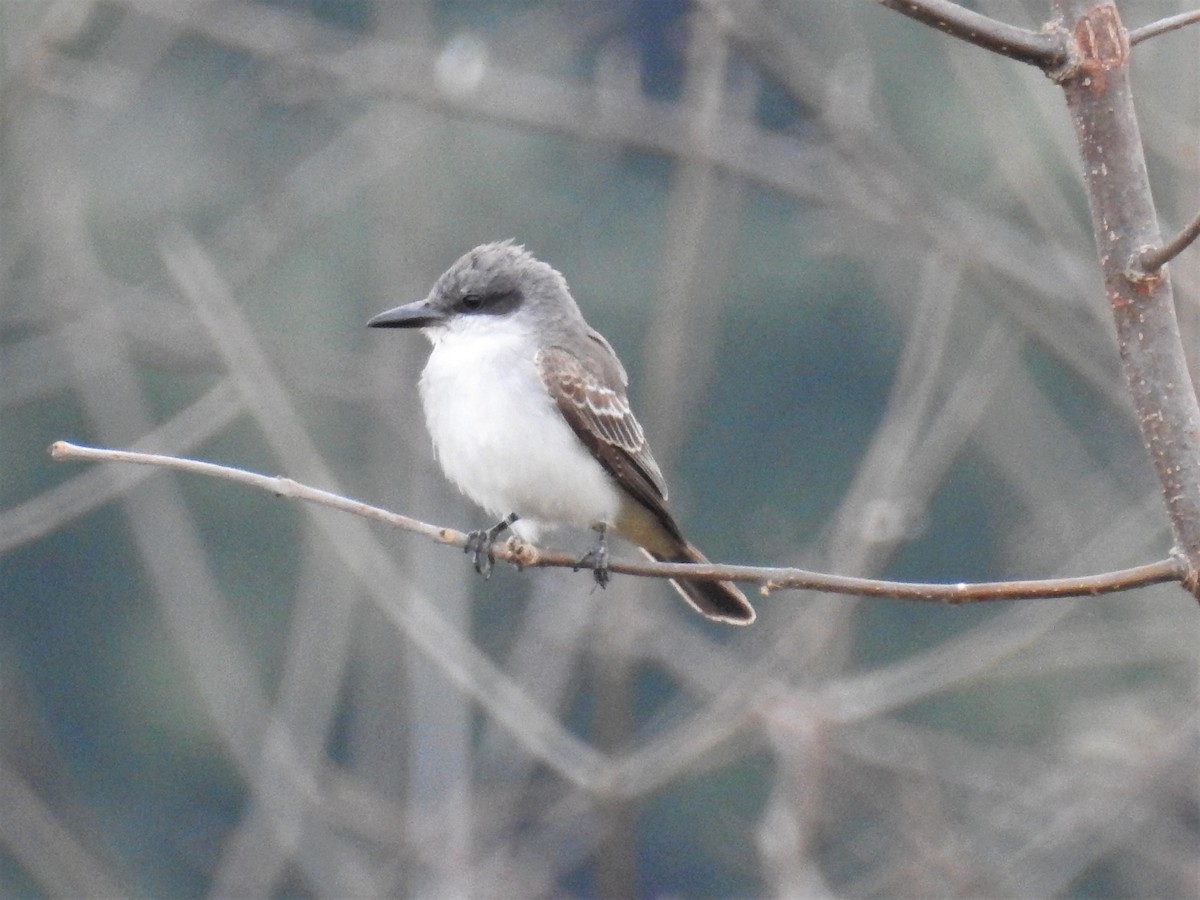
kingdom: Animalia
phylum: Chordata
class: Aves
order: Passeriformes
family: Tyrannidae
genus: Tyrannus
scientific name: Tyrannus dominicensis
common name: Gray kingbird
